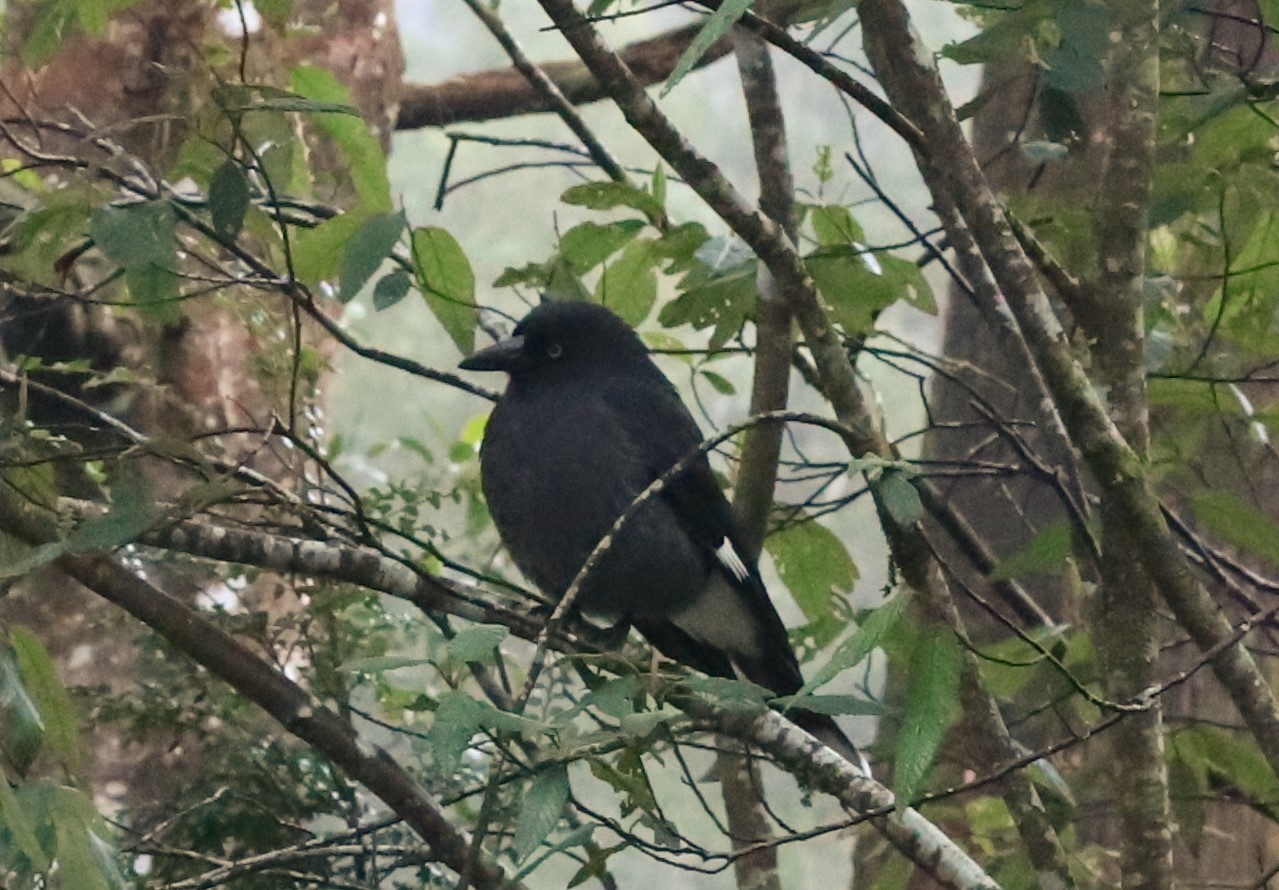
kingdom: Animalia
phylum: Chordata
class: Aves
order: Passeriformes
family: Cracticidae
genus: Strepera
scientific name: Strepera graculina
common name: Pied currawong
